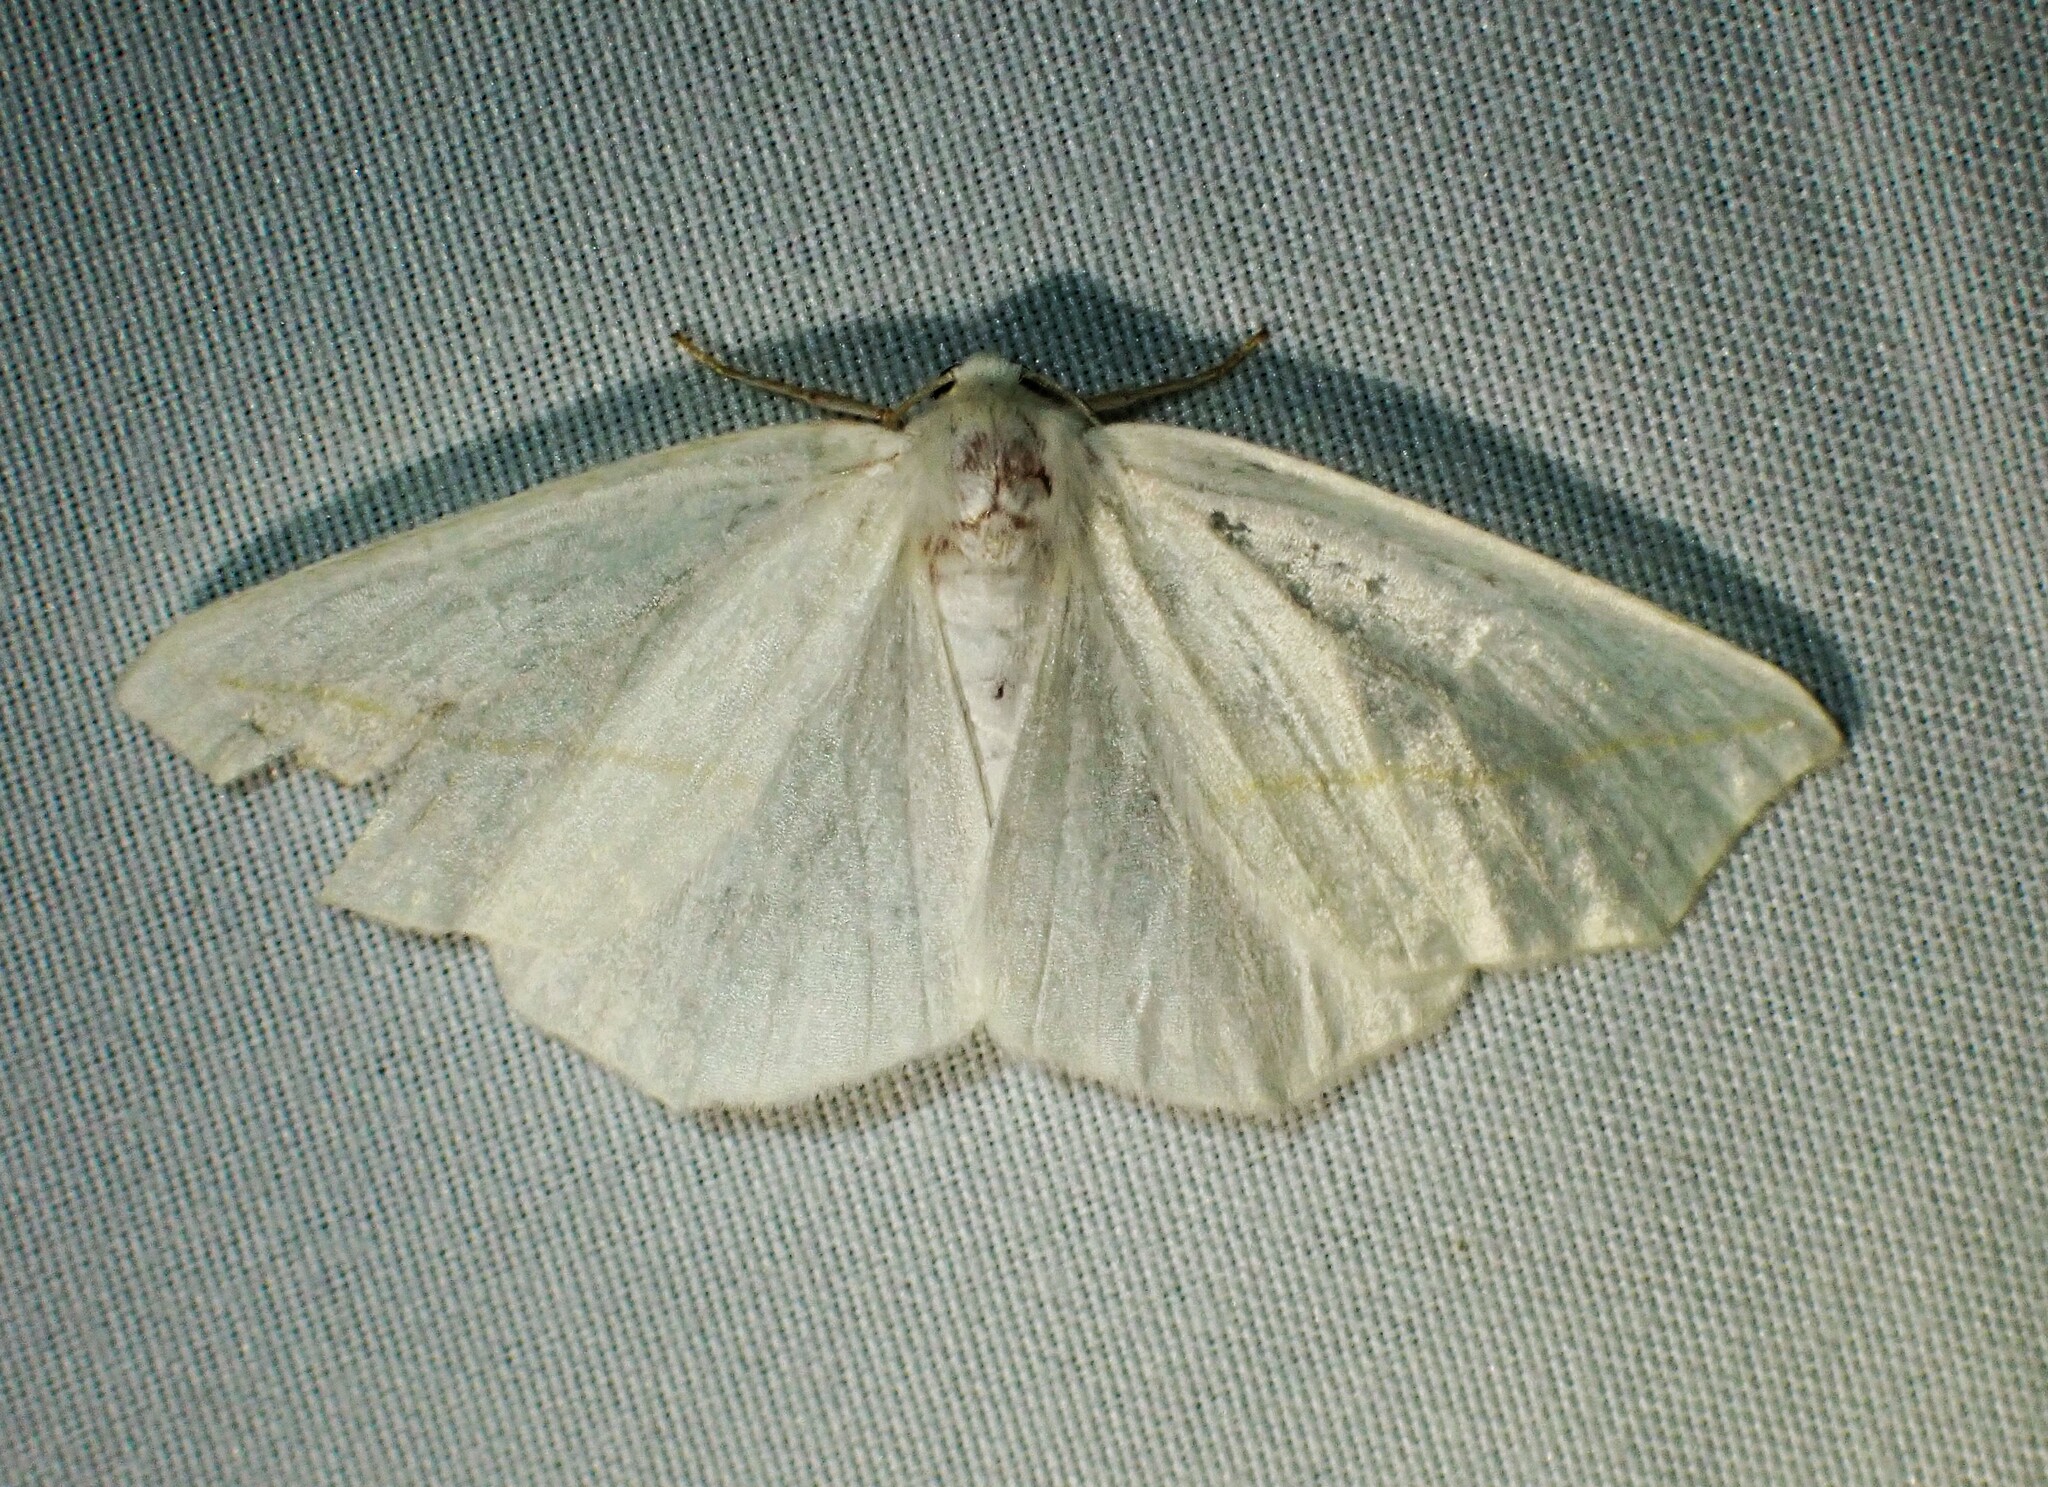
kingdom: Animalia
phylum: Arthropoda
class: Insecta
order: Lepidoptera
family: Geometridae
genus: Tetracis
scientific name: Tetracis cachexiata
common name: White slant-line
